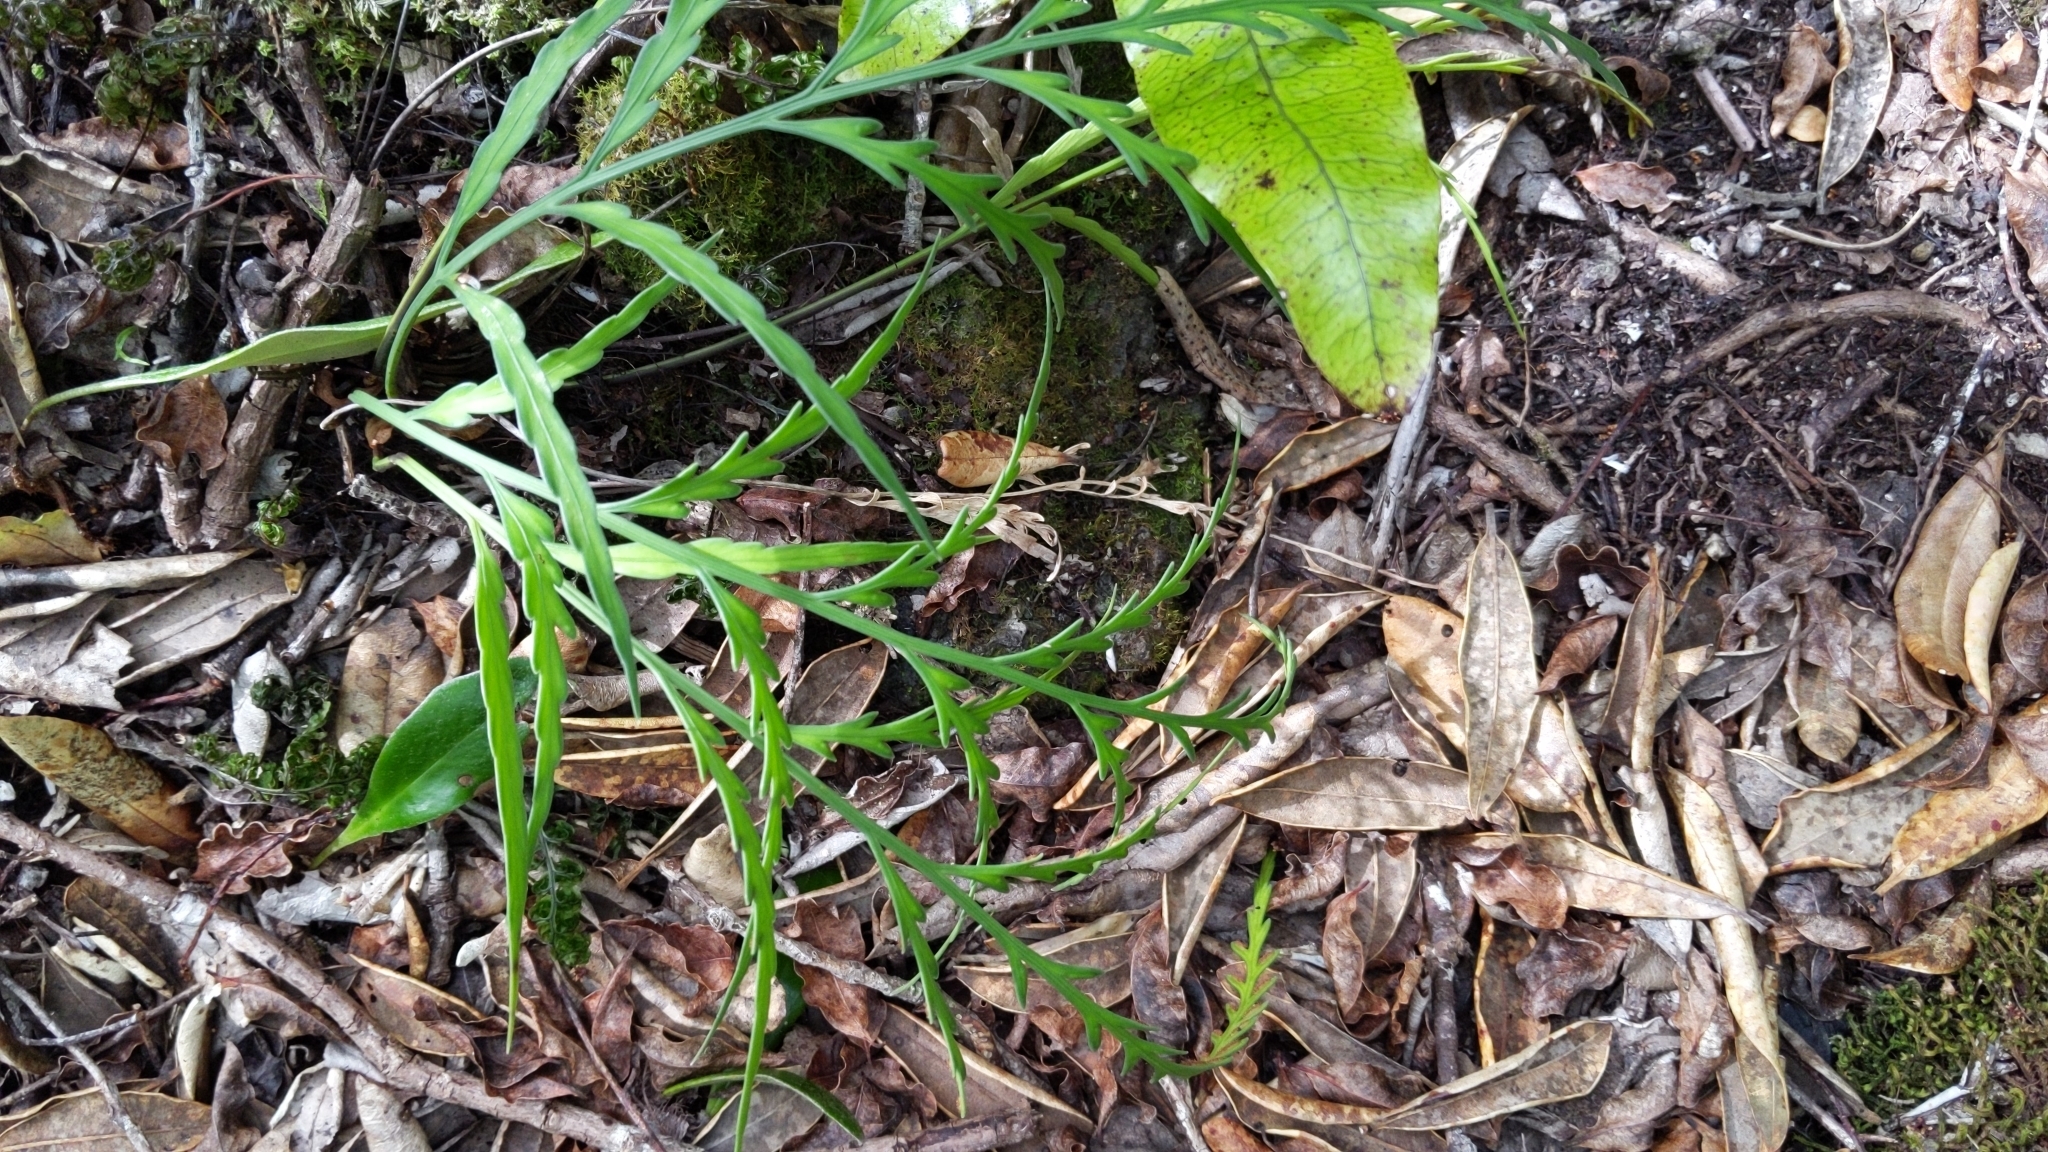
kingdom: Plantae
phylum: Tracheophyta
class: Polypodiopsida
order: Polypodiales
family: Aspleniaceae
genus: Asplenium
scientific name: Asplenium flaccidum
